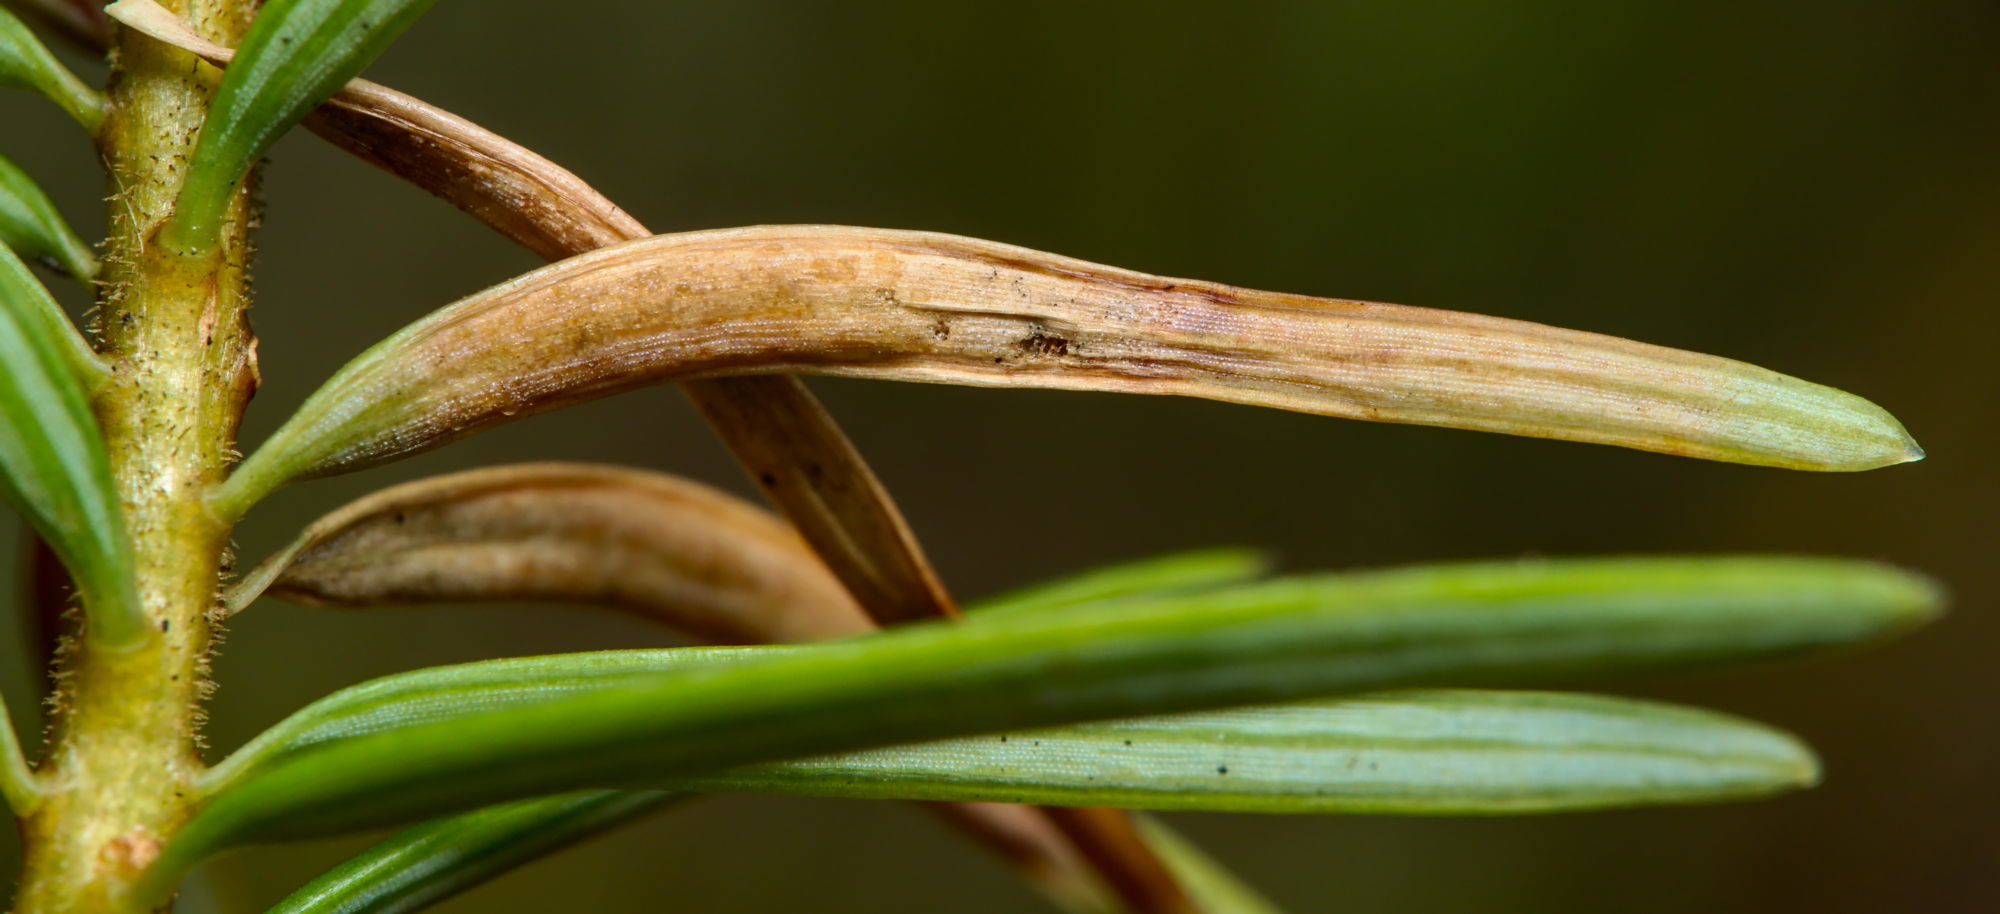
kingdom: Animalia
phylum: Arthropoda
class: Insecta
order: Diptera
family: Cecidomyiidae
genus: Contarinia
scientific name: Contarinia pseudotsugae
